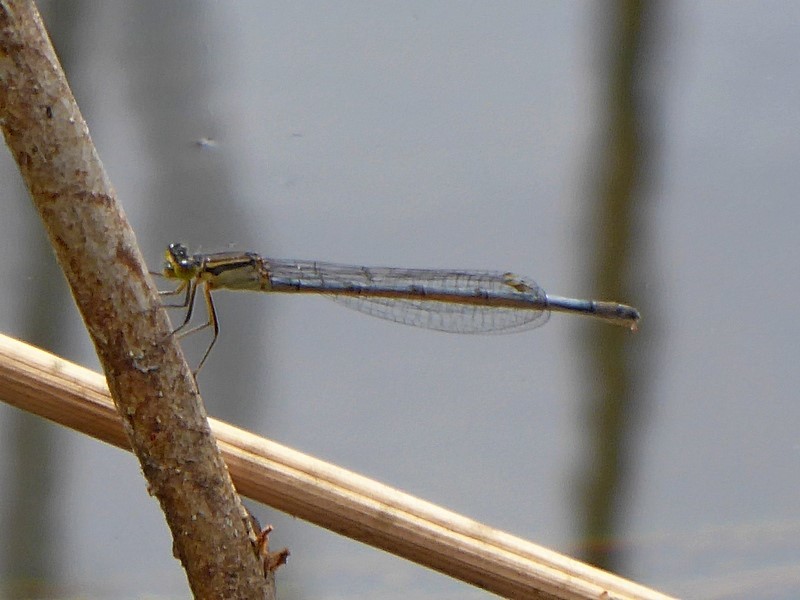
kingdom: Animalia
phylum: Arthropoda
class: Insecta
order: Odonata
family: Coenagrionidae
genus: Ischnura
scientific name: Ischnura heterosticta
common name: Common bluetail
